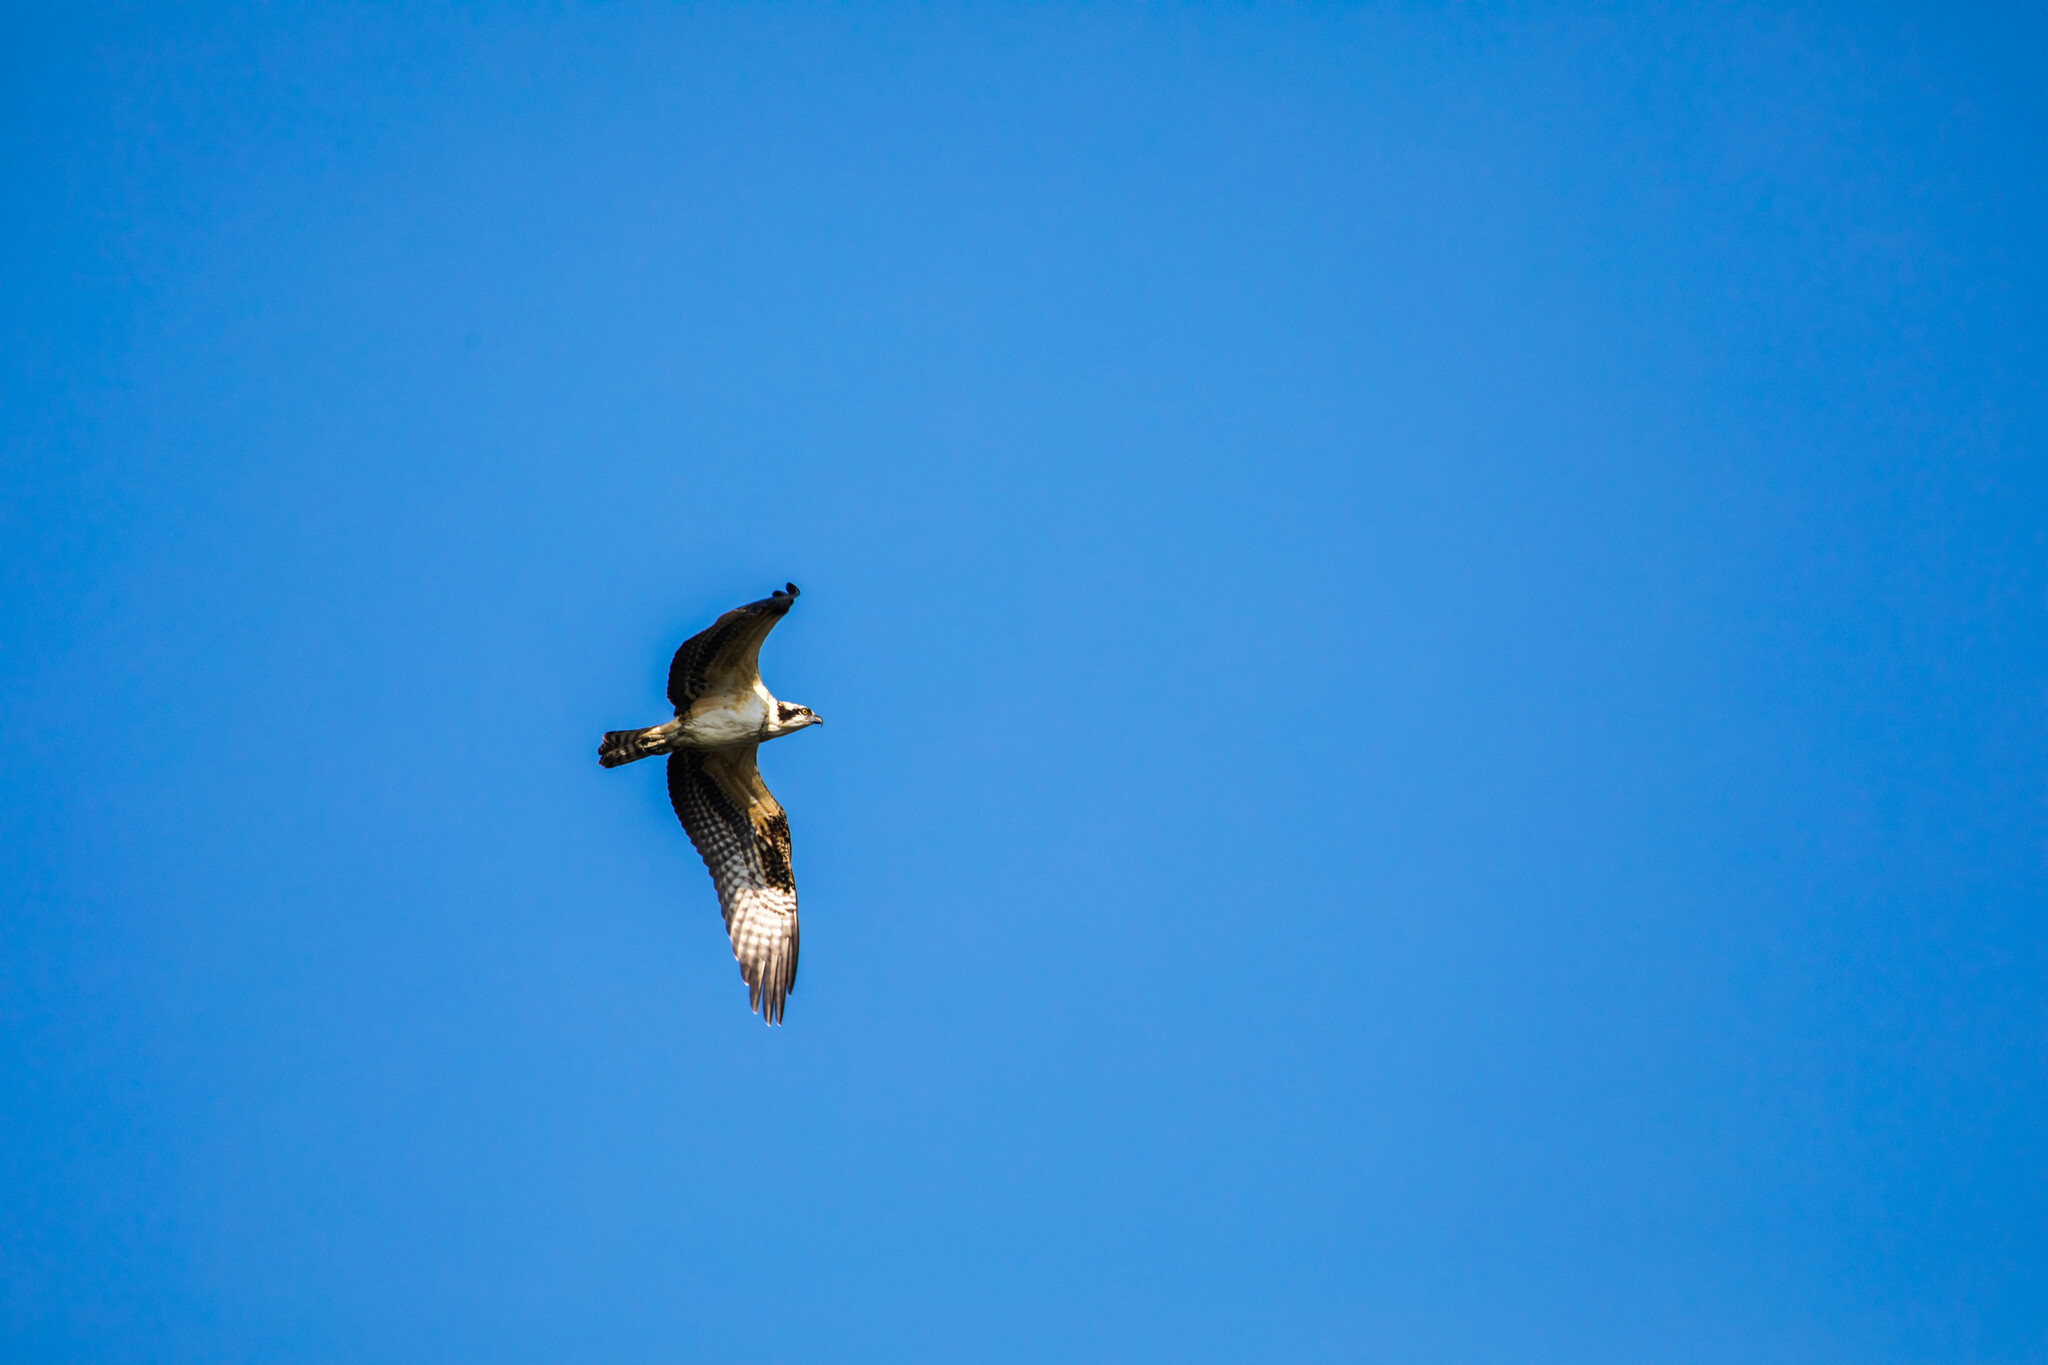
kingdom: Animalia
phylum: Chordata
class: Aves
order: Accipitriformes
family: Pandionidae
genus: Pandion
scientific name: Pandion haliaetus
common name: Osprey
